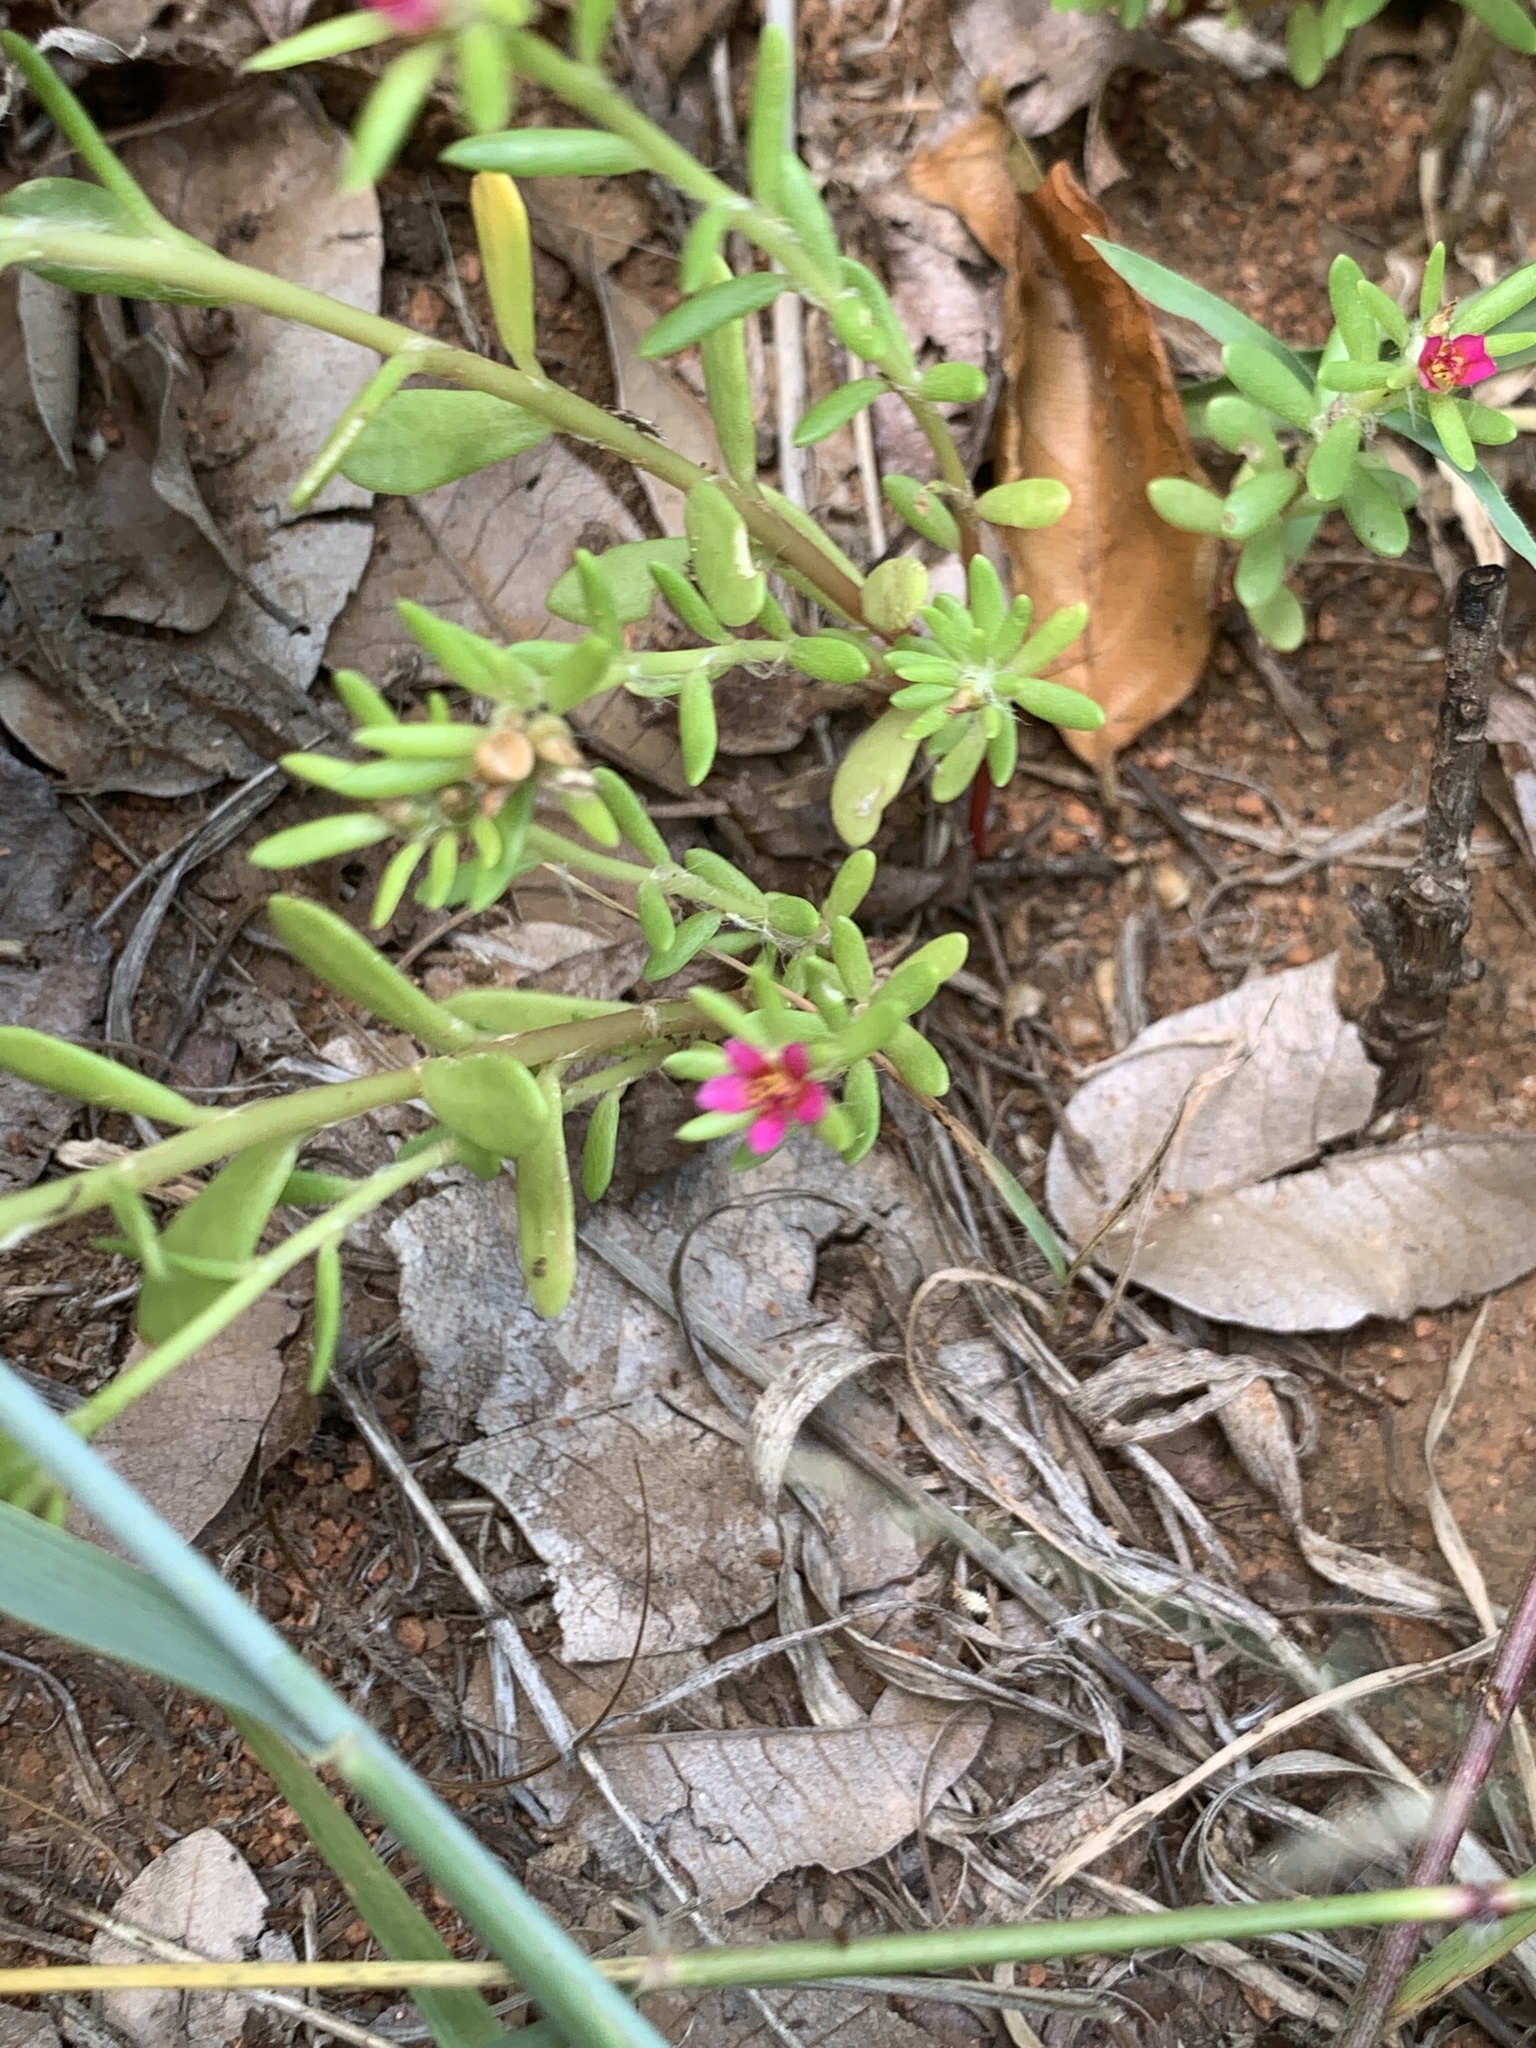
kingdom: Plantae
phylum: Tracheophyta
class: Magnoliopsida
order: Caryophyllales
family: Portulacaceae
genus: Portulaca
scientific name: Portulaca amilis
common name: Paraguayan purslane
